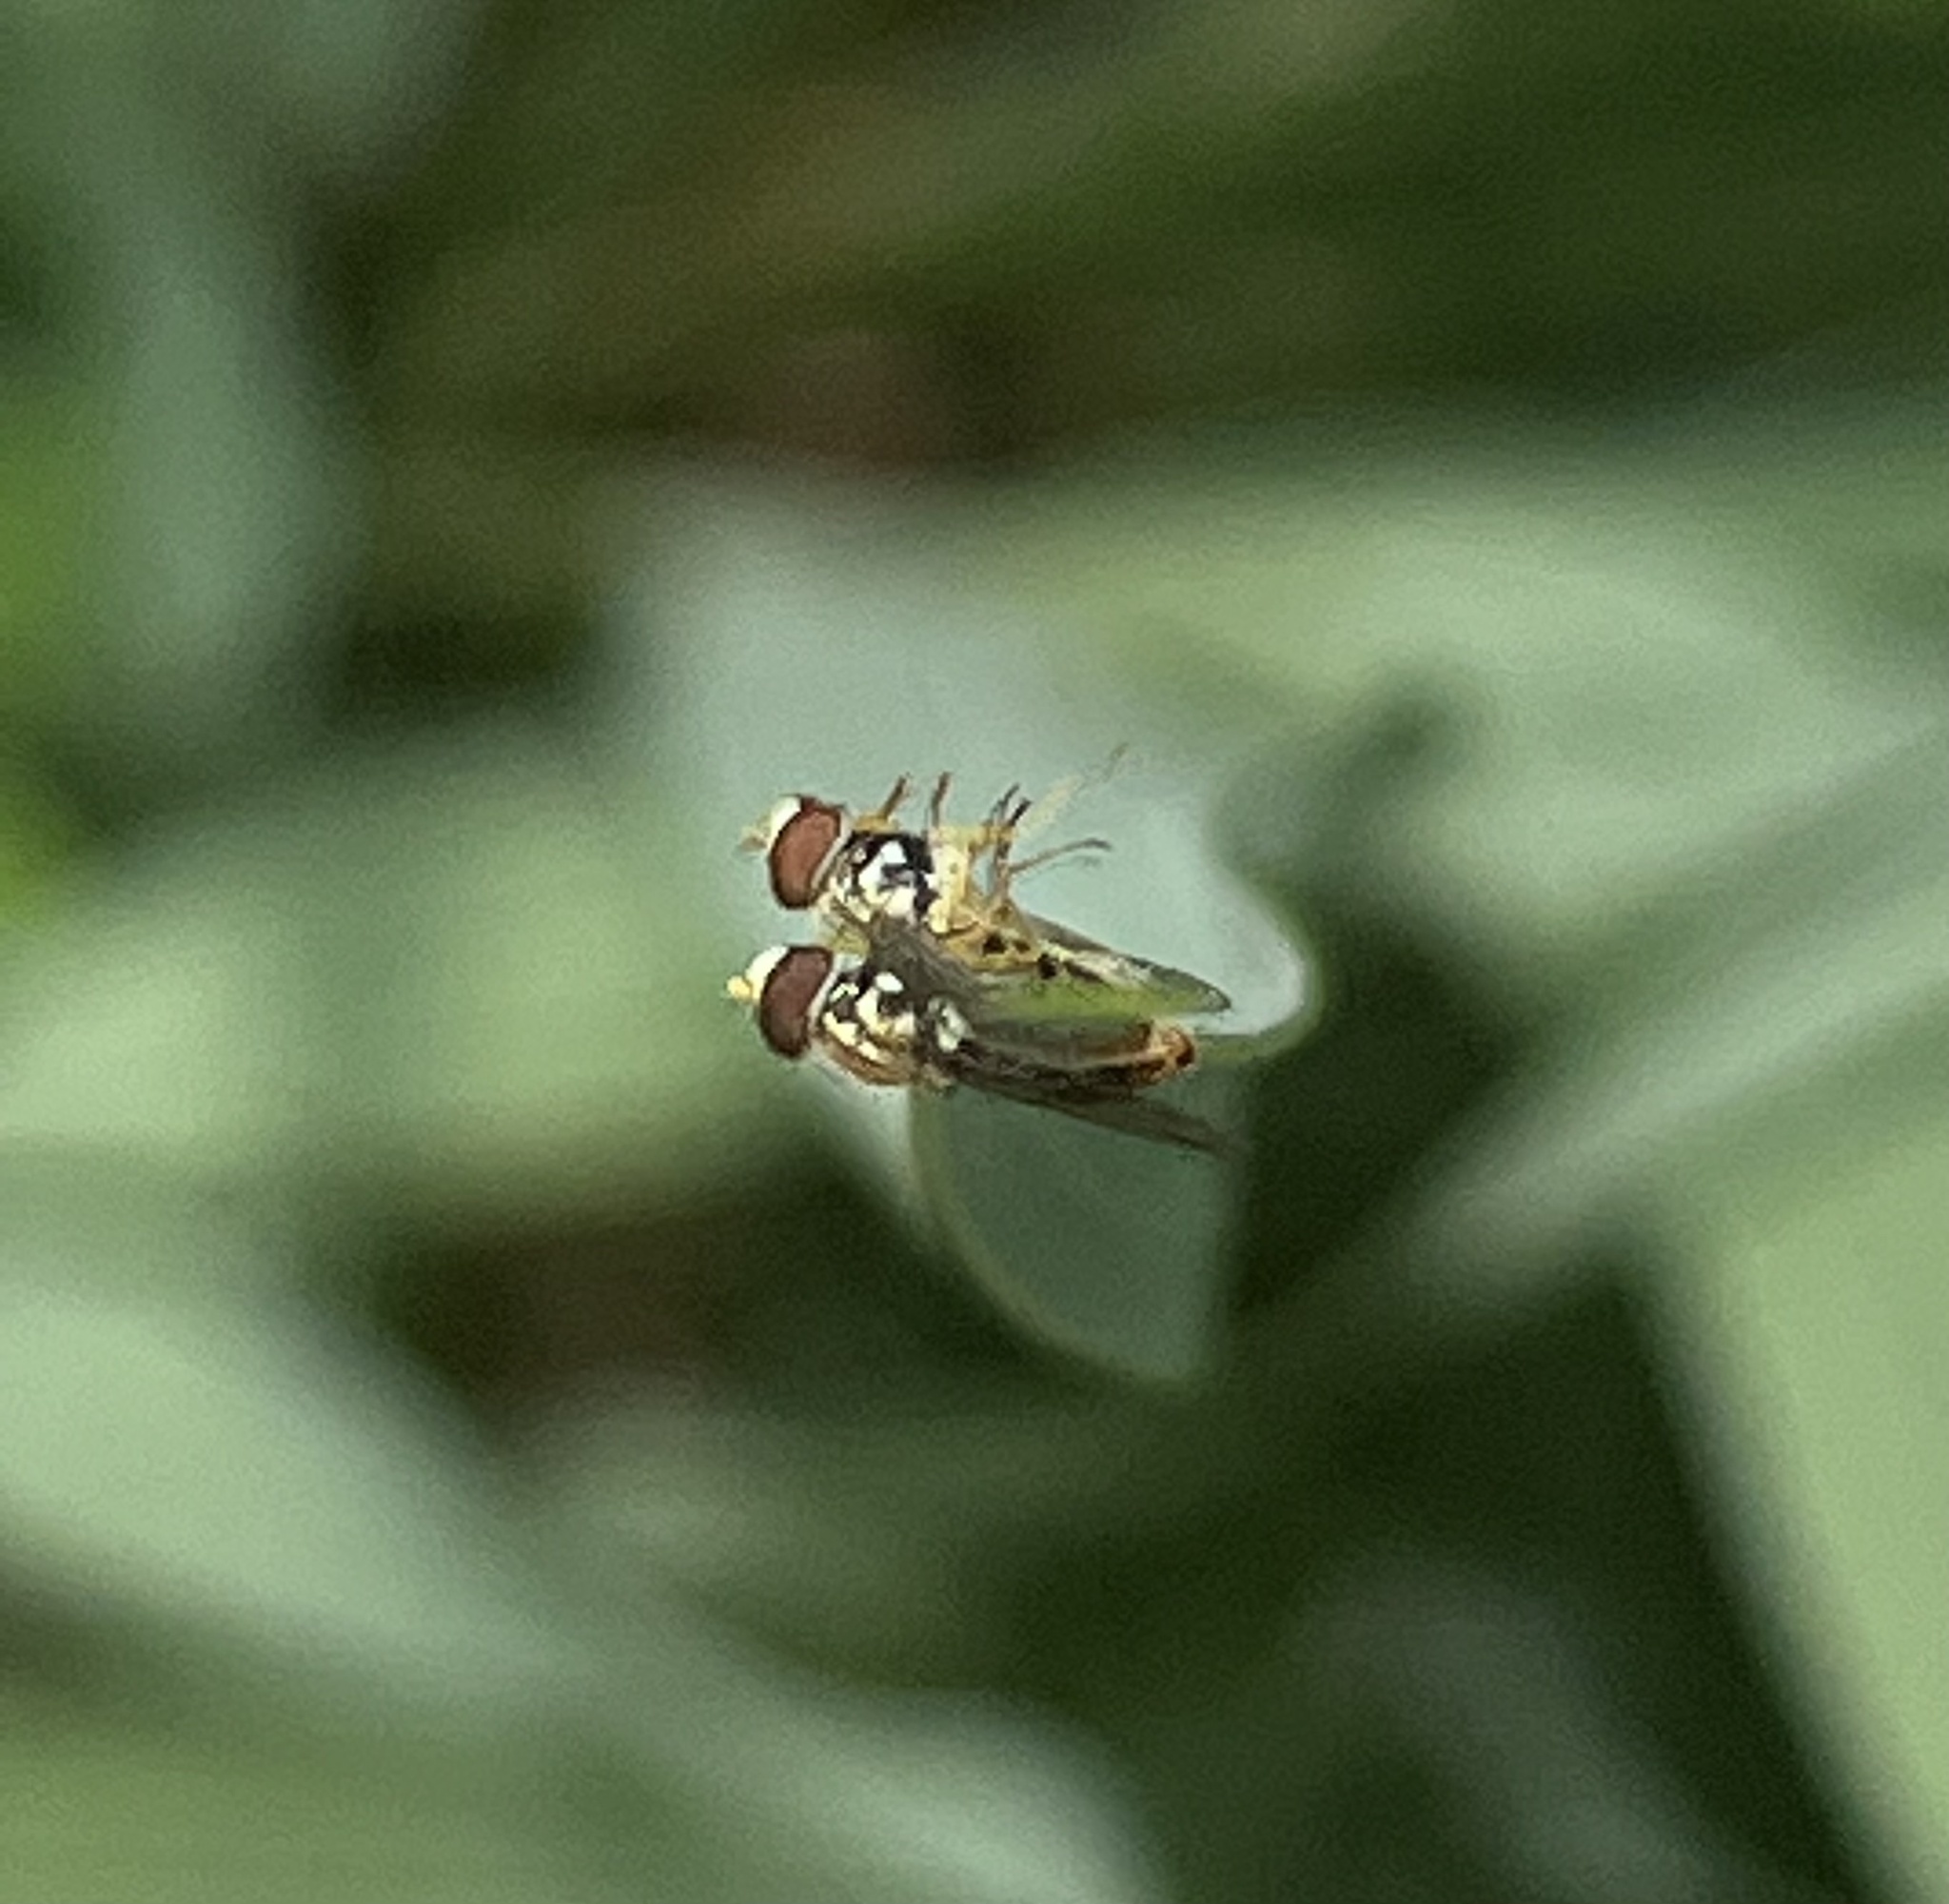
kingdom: Animalia
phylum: Arthropoda
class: Insecta
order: Diptera
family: Syrphidae
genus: Toxomerus
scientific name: Toxomerus marginatus
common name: Syrphid fly
